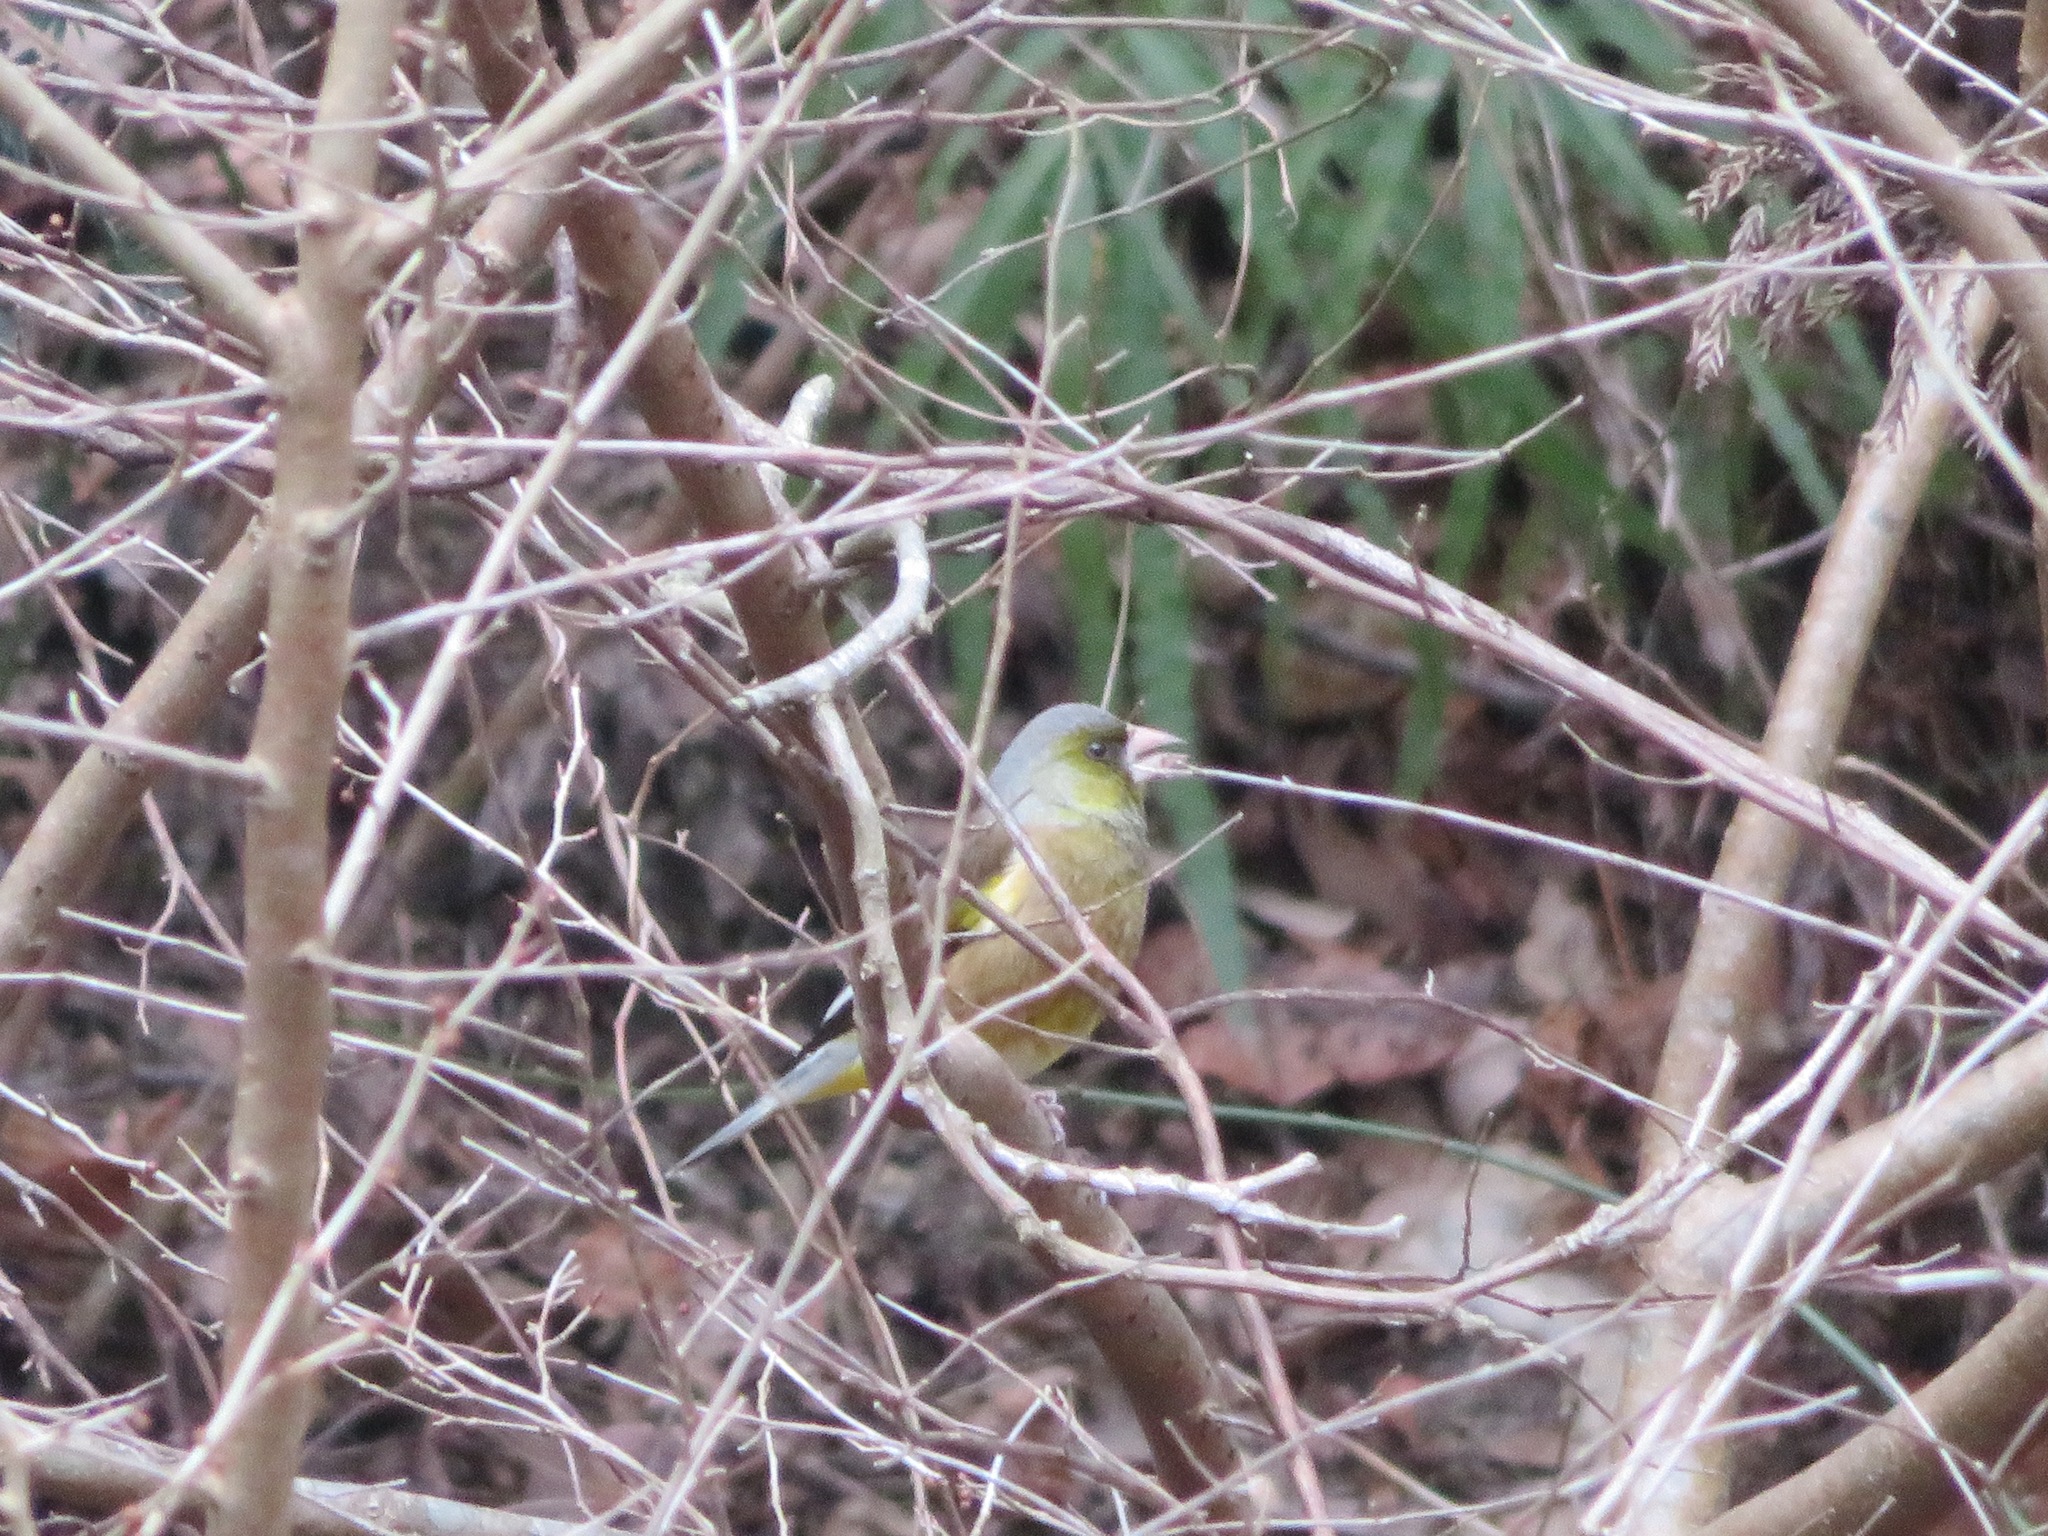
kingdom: Plantae
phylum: Tracheophyta
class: Liliopsida
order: Poales
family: Poaceae
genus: Chloris
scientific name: Chloris sinica
